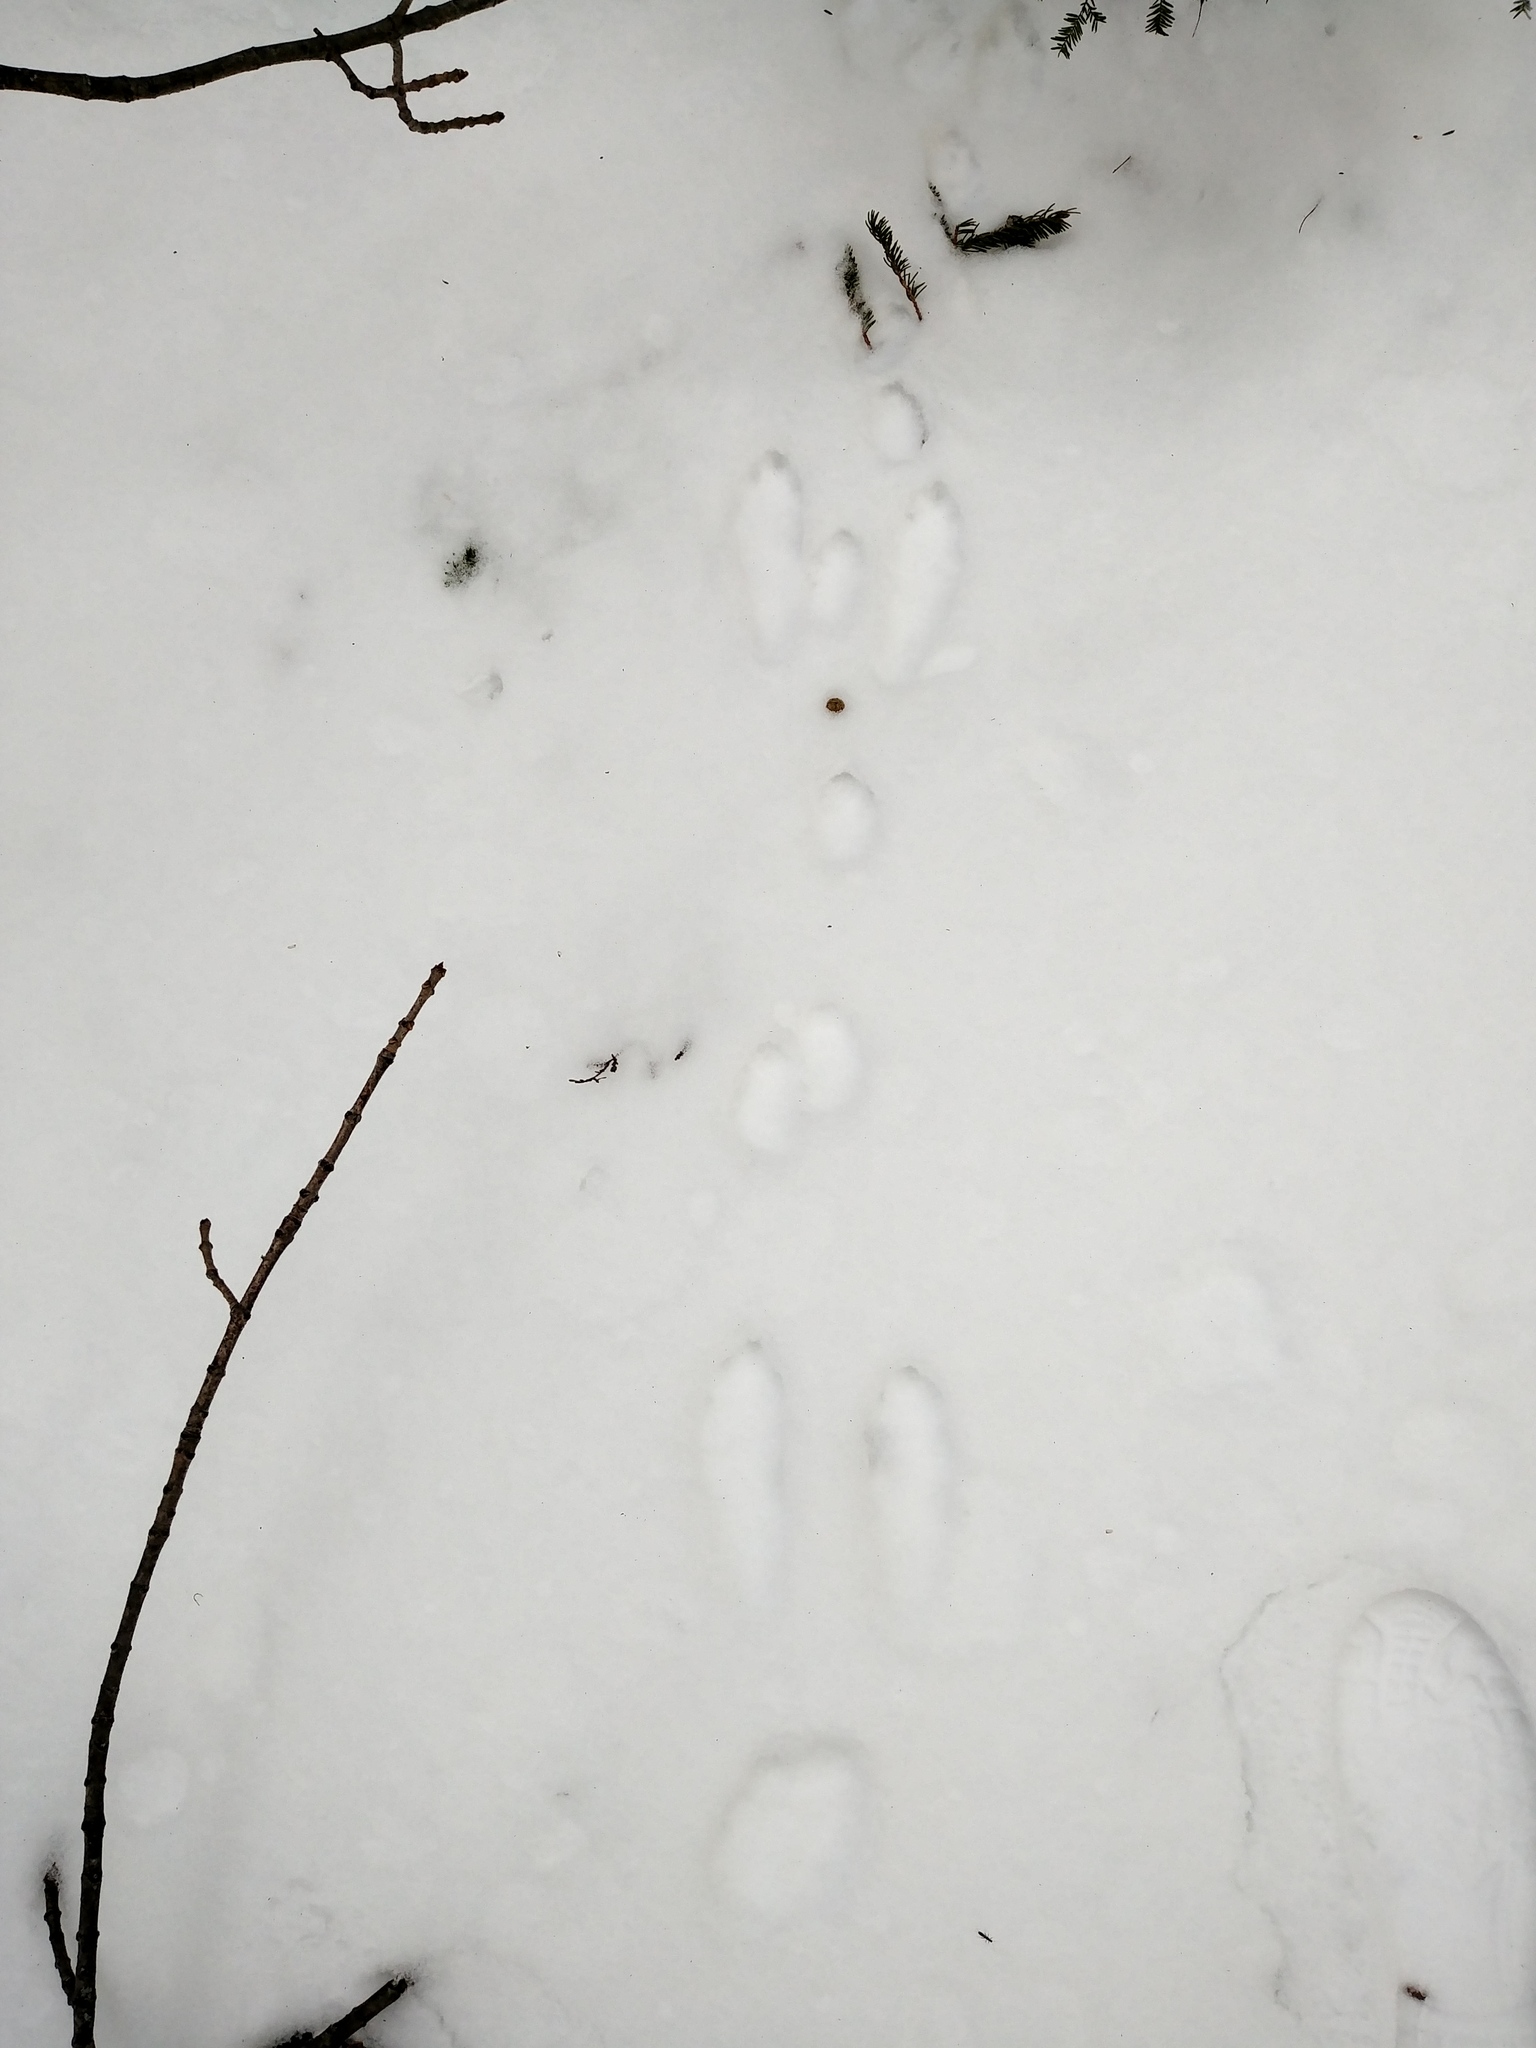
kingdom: Animalia
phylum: Chordata
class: Mammalia
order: Lagomorpha
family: Leporidae
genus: Lepus
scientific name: Lepus americanus
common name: Snowshoe hare
